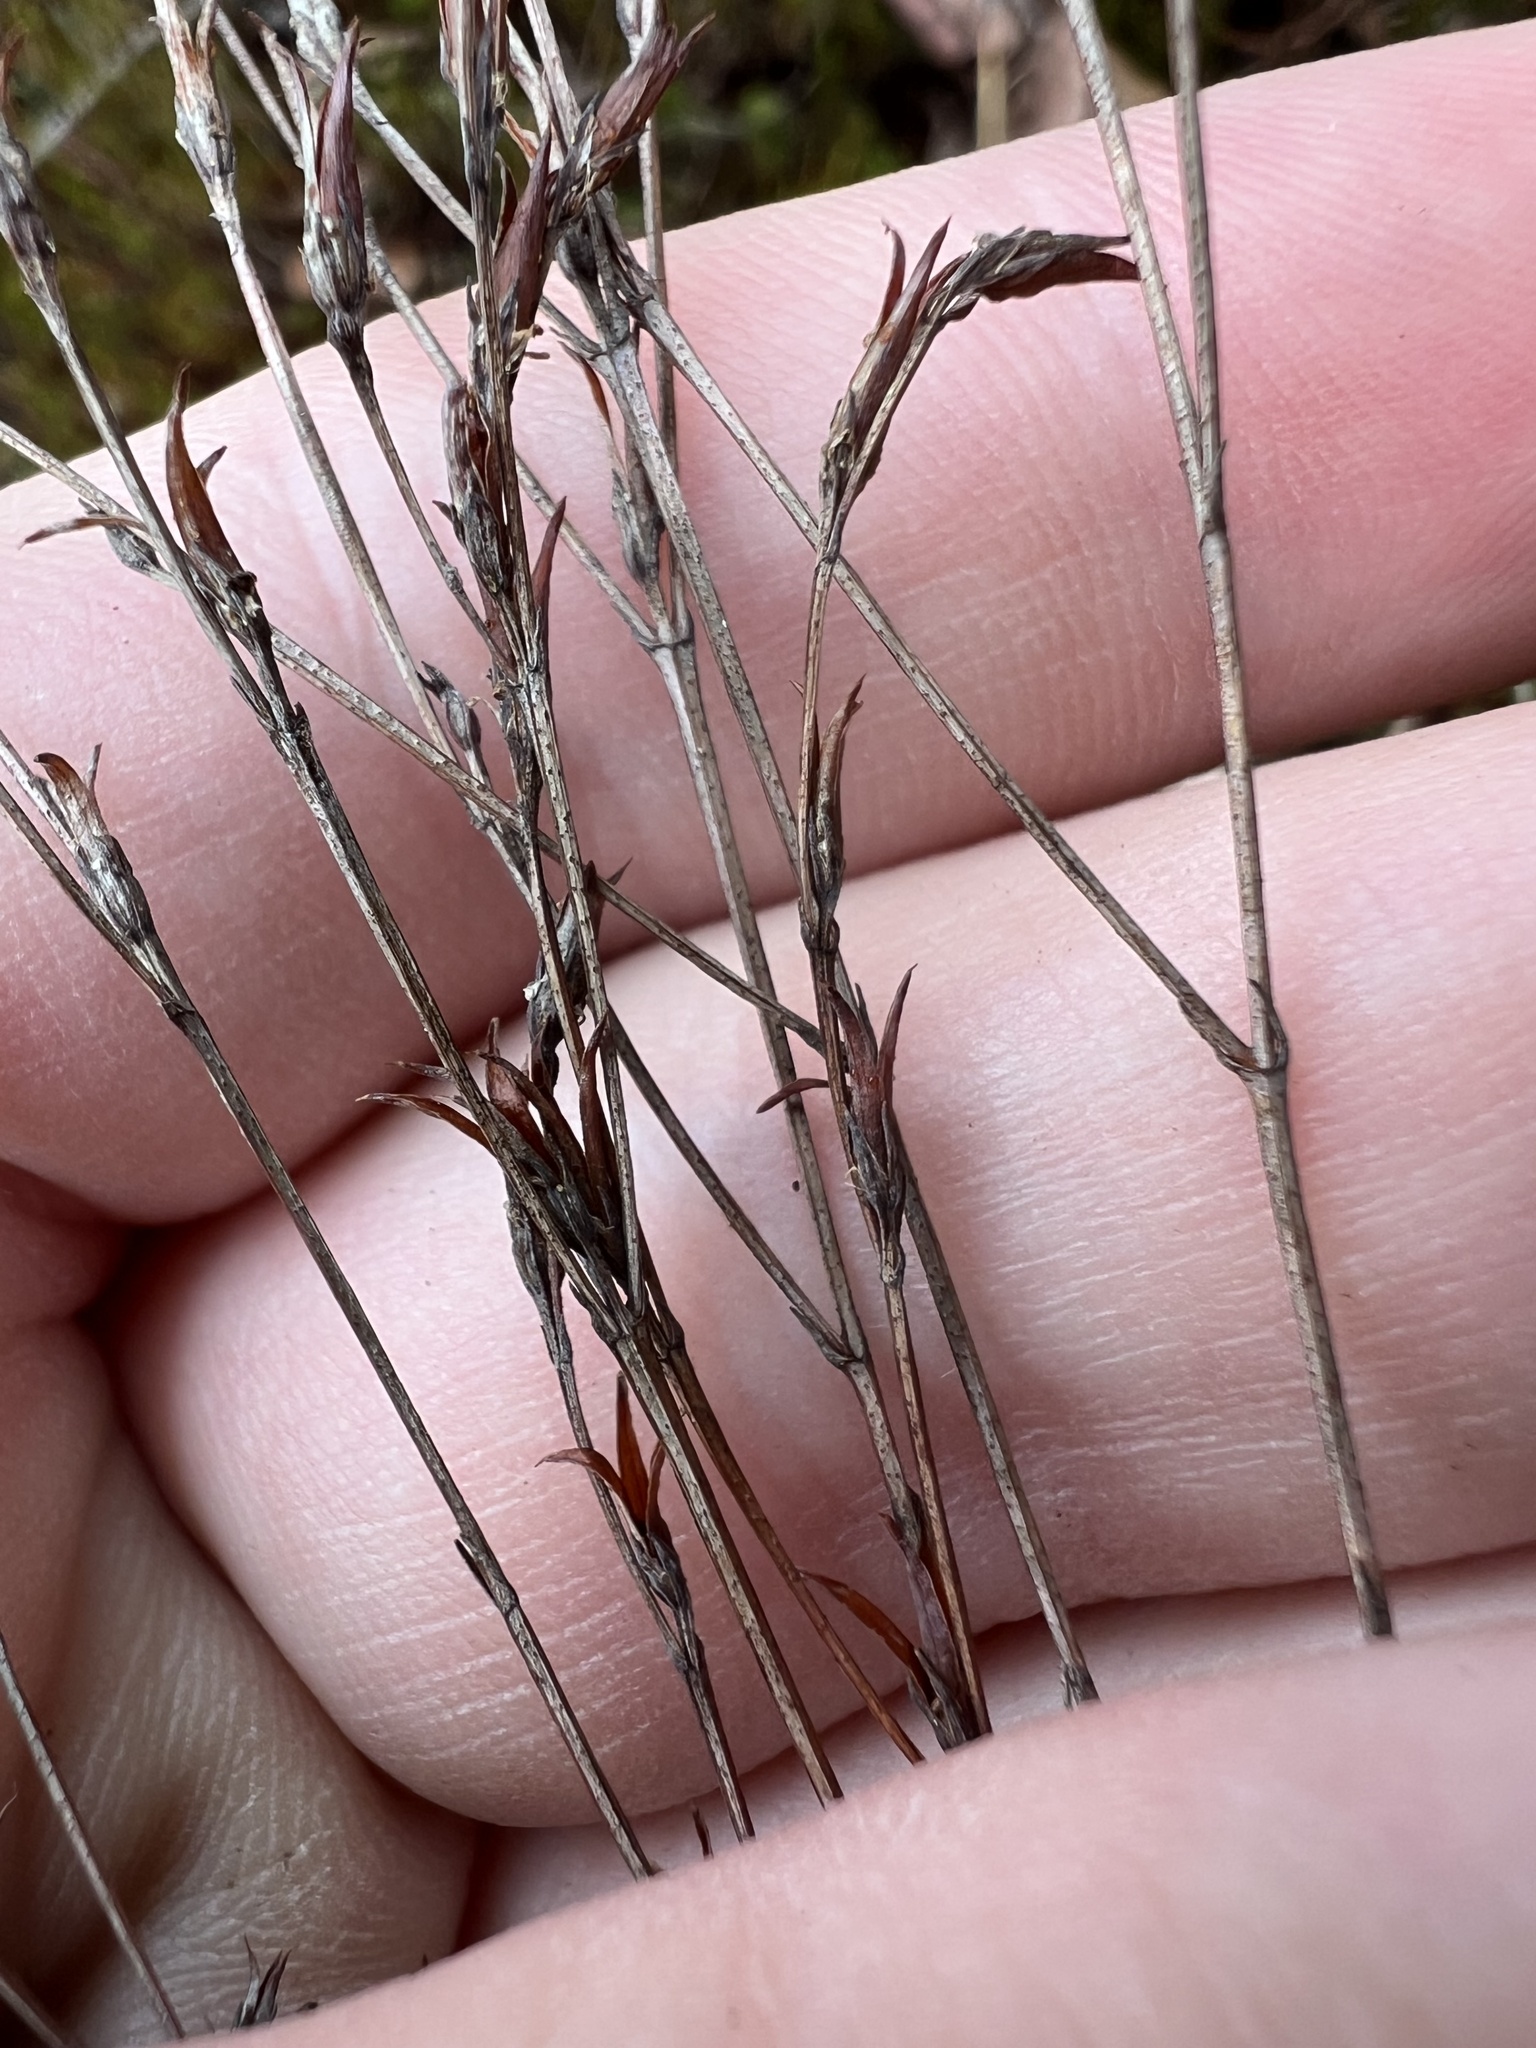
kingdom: Plantae
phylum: Tracheophyta
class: Magnoliopsida
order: Malpighiales
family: Hypericaceae
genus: Hypericum
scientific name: Hypericum gentianoides
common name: Gentian-leaved st. john's-wort
